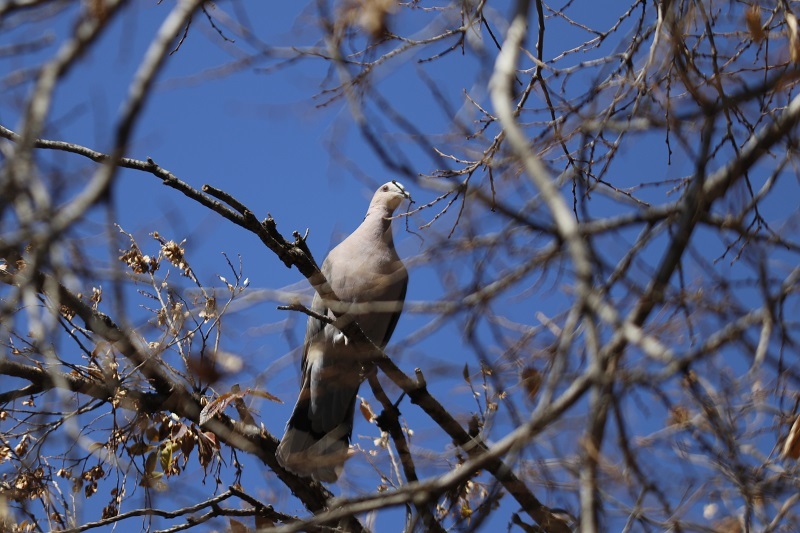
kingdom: Animalia
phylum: Chordata
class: Aves
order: Columbiformes
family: Columbidae
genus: Streptopelia
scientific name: Streptopelia semitorquata
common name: Red-eyed dove
